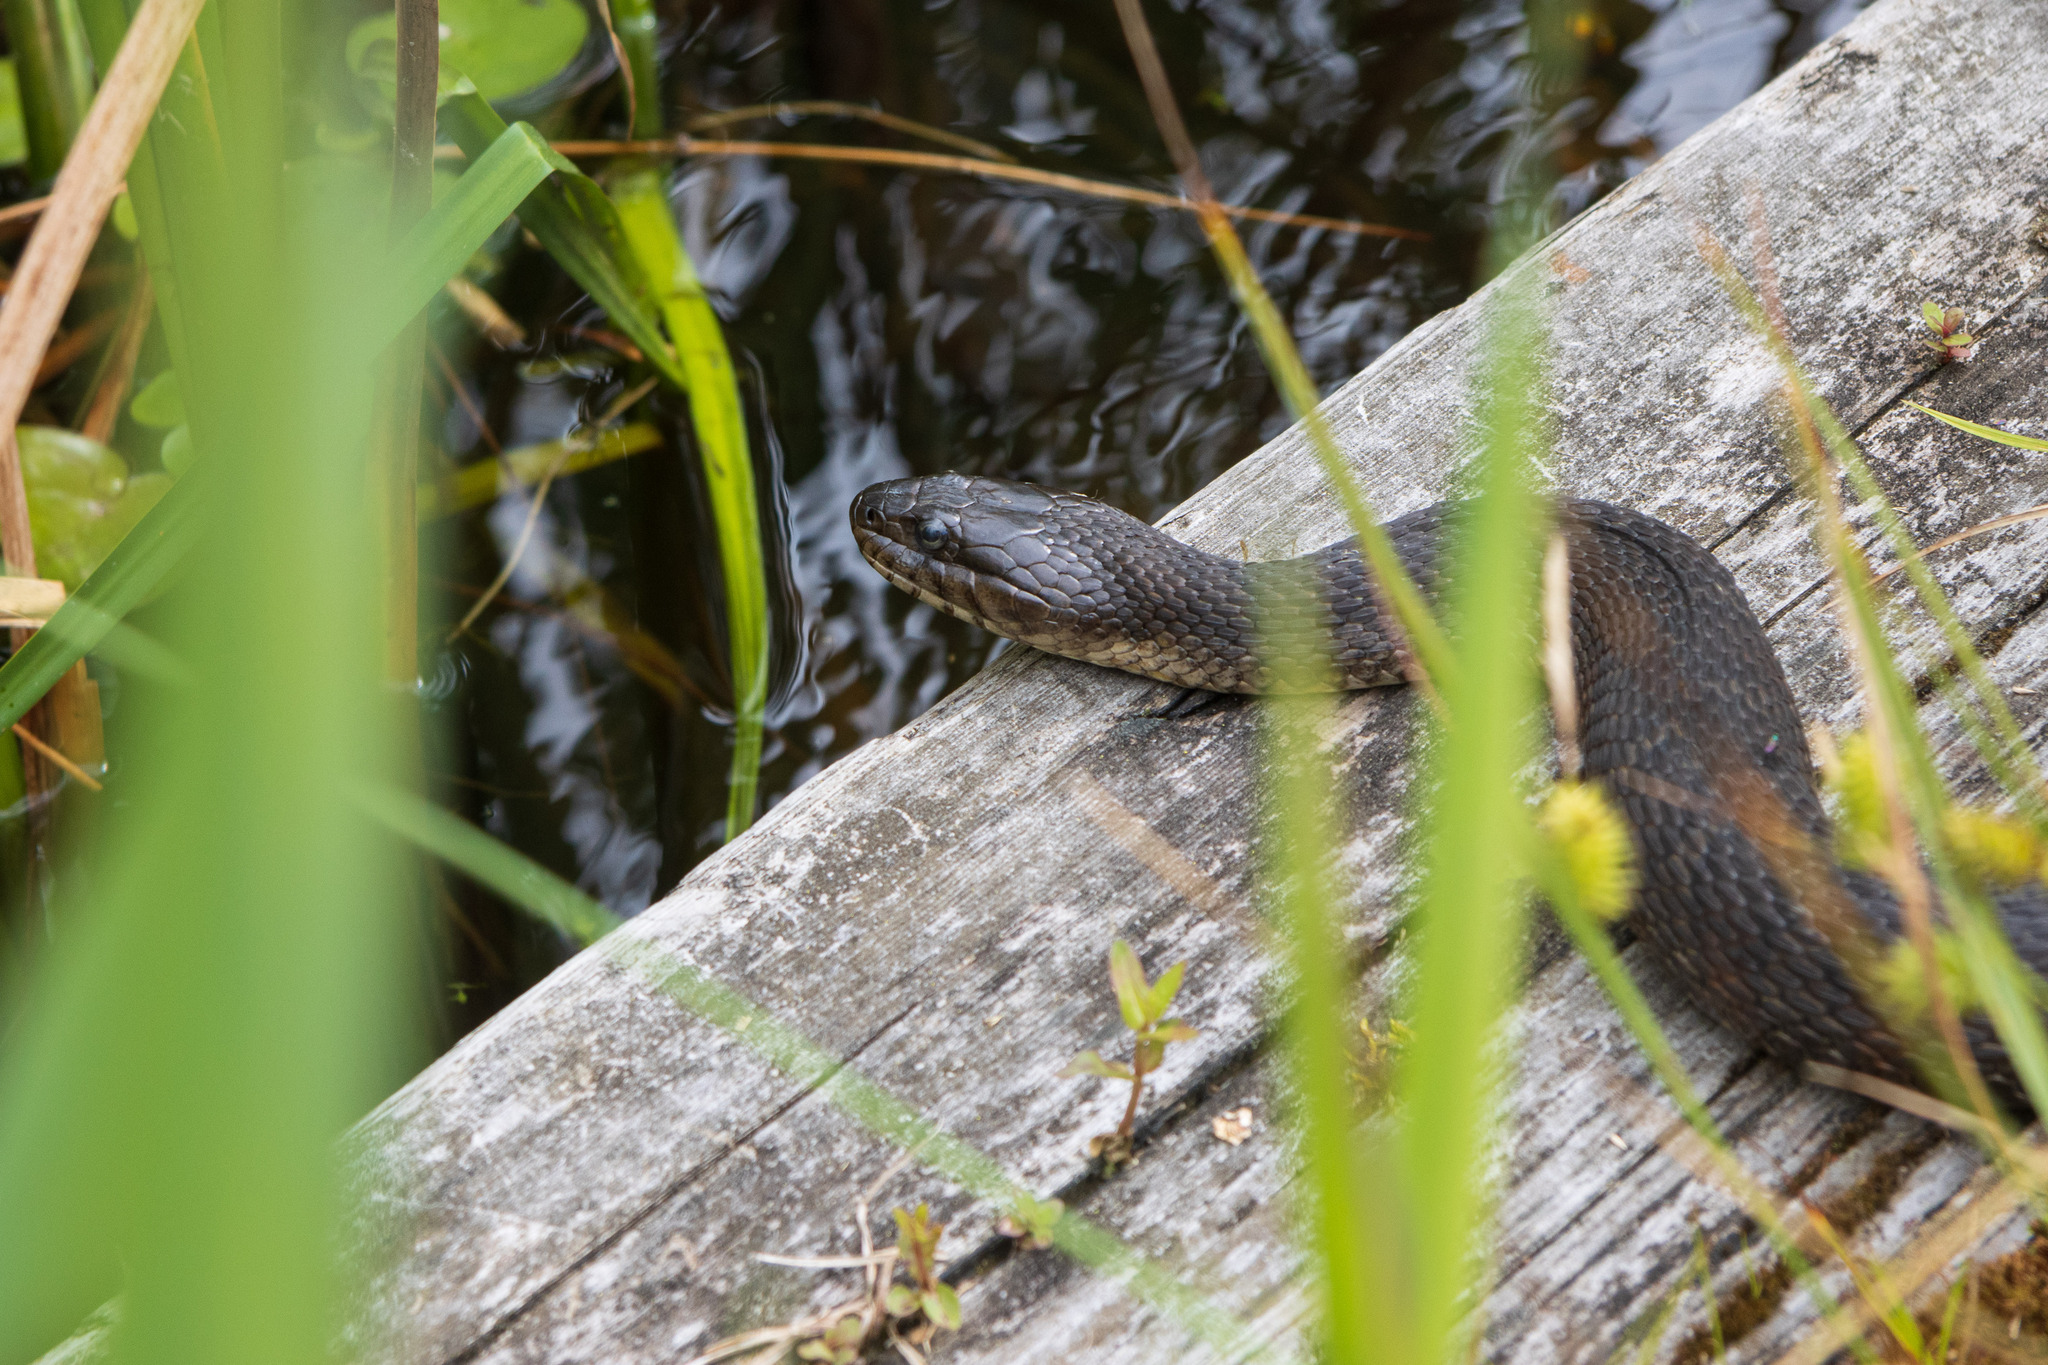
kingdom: Animalia
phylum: Chordata
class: Squamata
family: Colubridae
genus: Nerodia
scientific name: Nerodia sipedon
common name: Northern water snake
